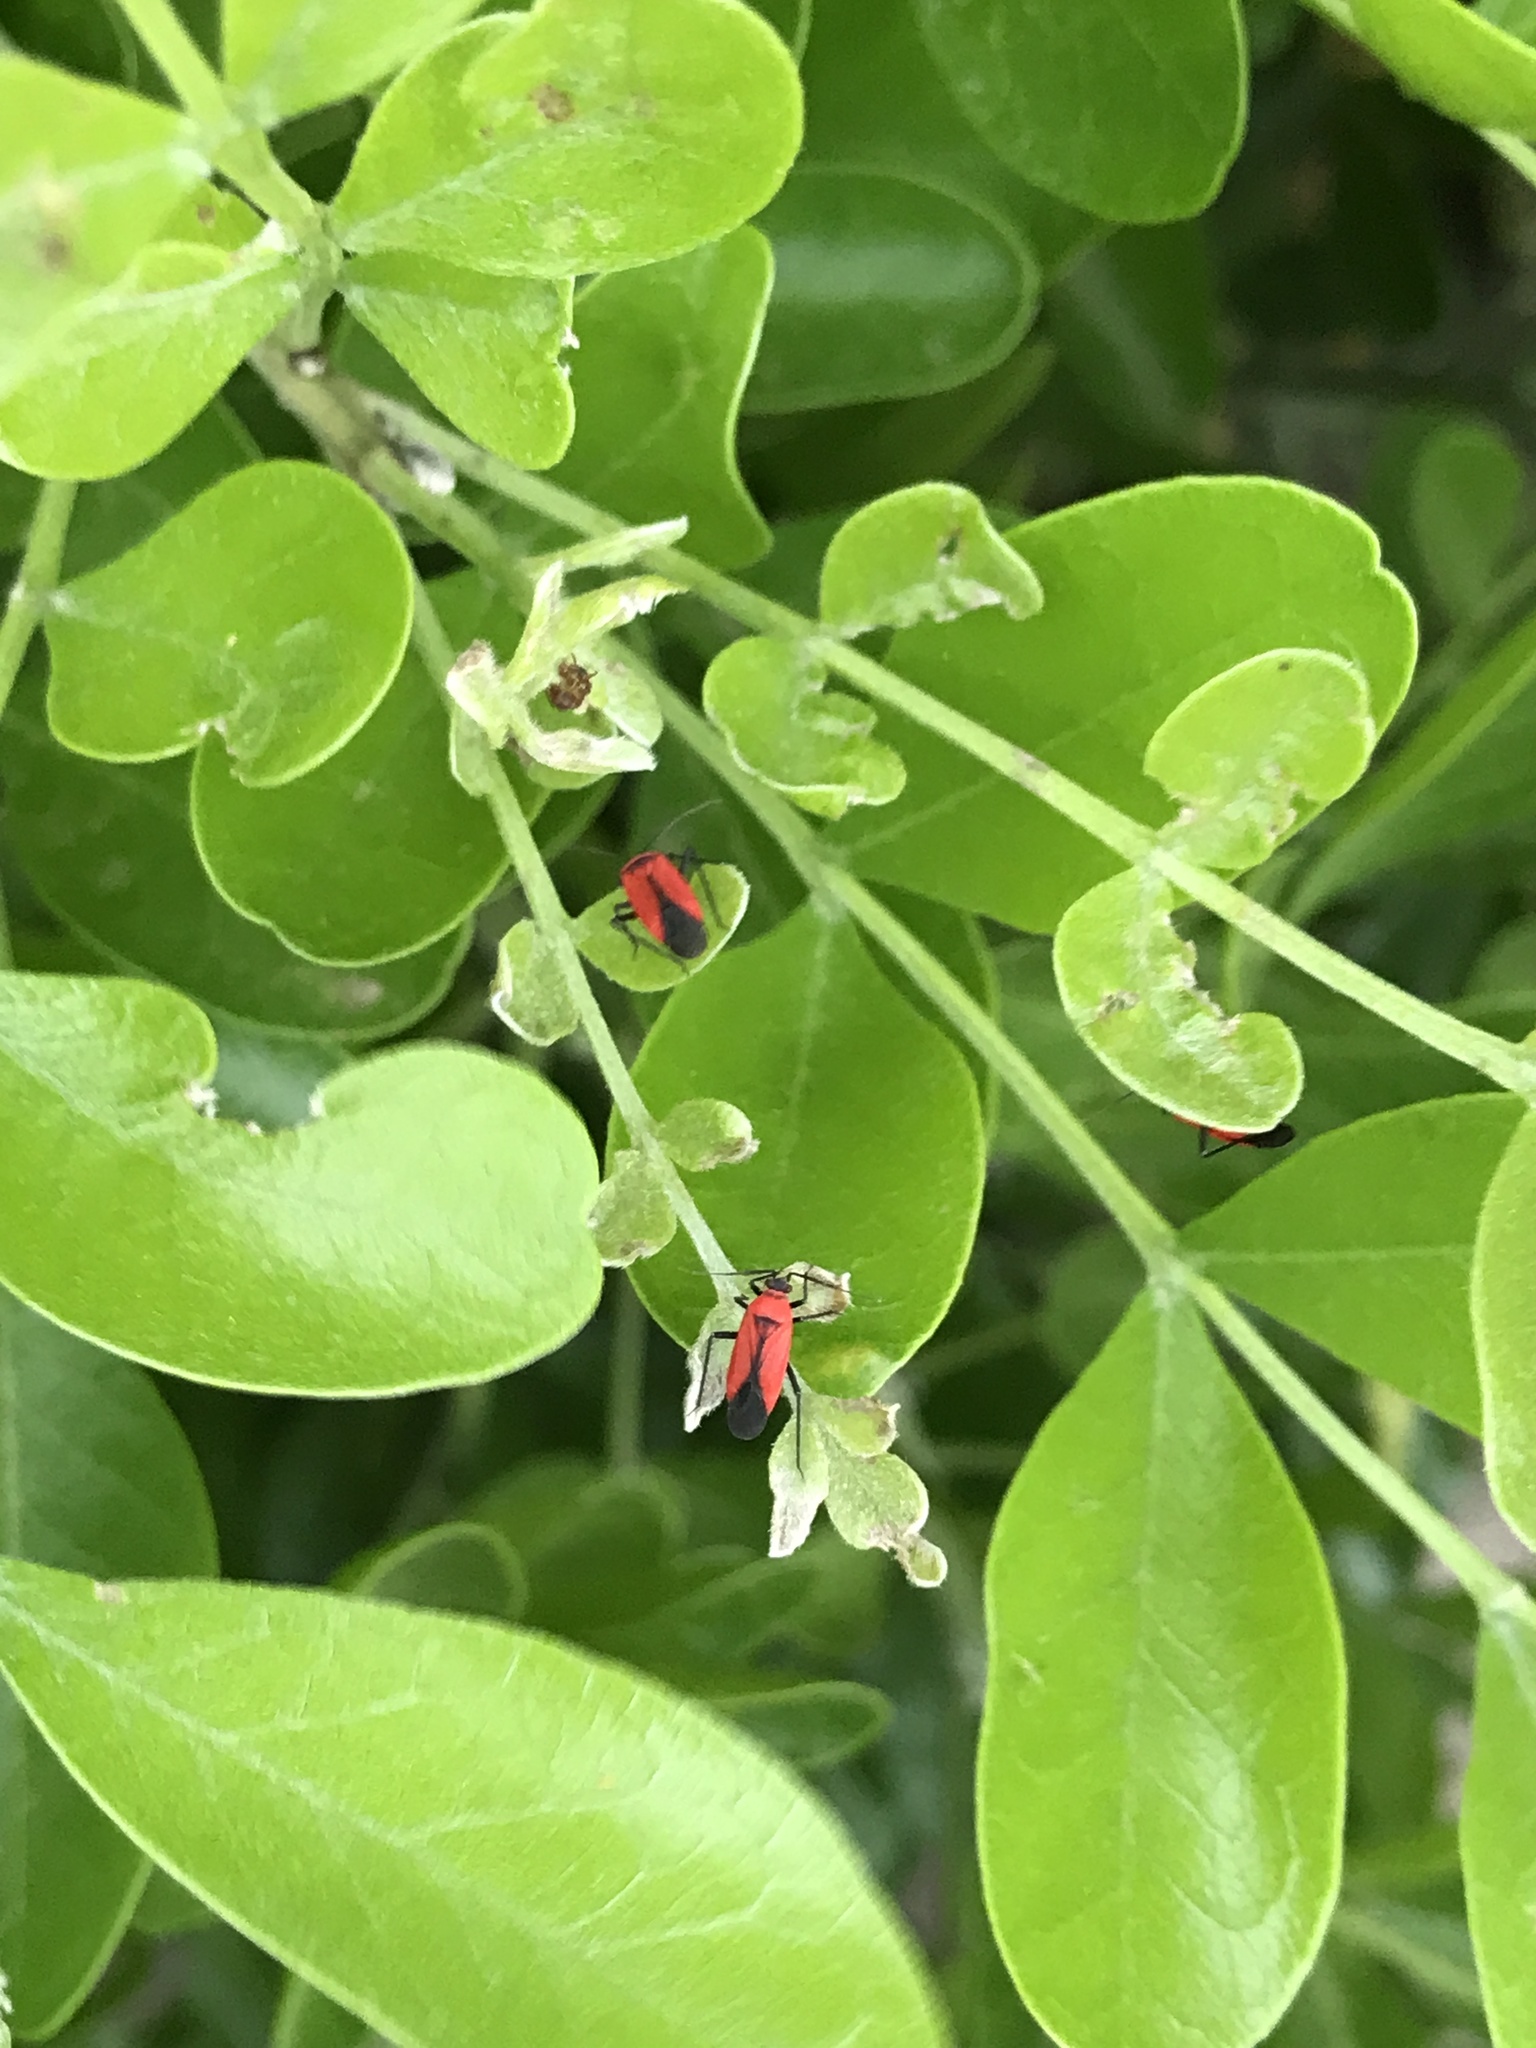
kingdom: Animalia
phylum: Arthropoda
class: Insecta
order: Hemiptera
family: Miridae
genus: Lopidea
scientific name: Lopidea major
